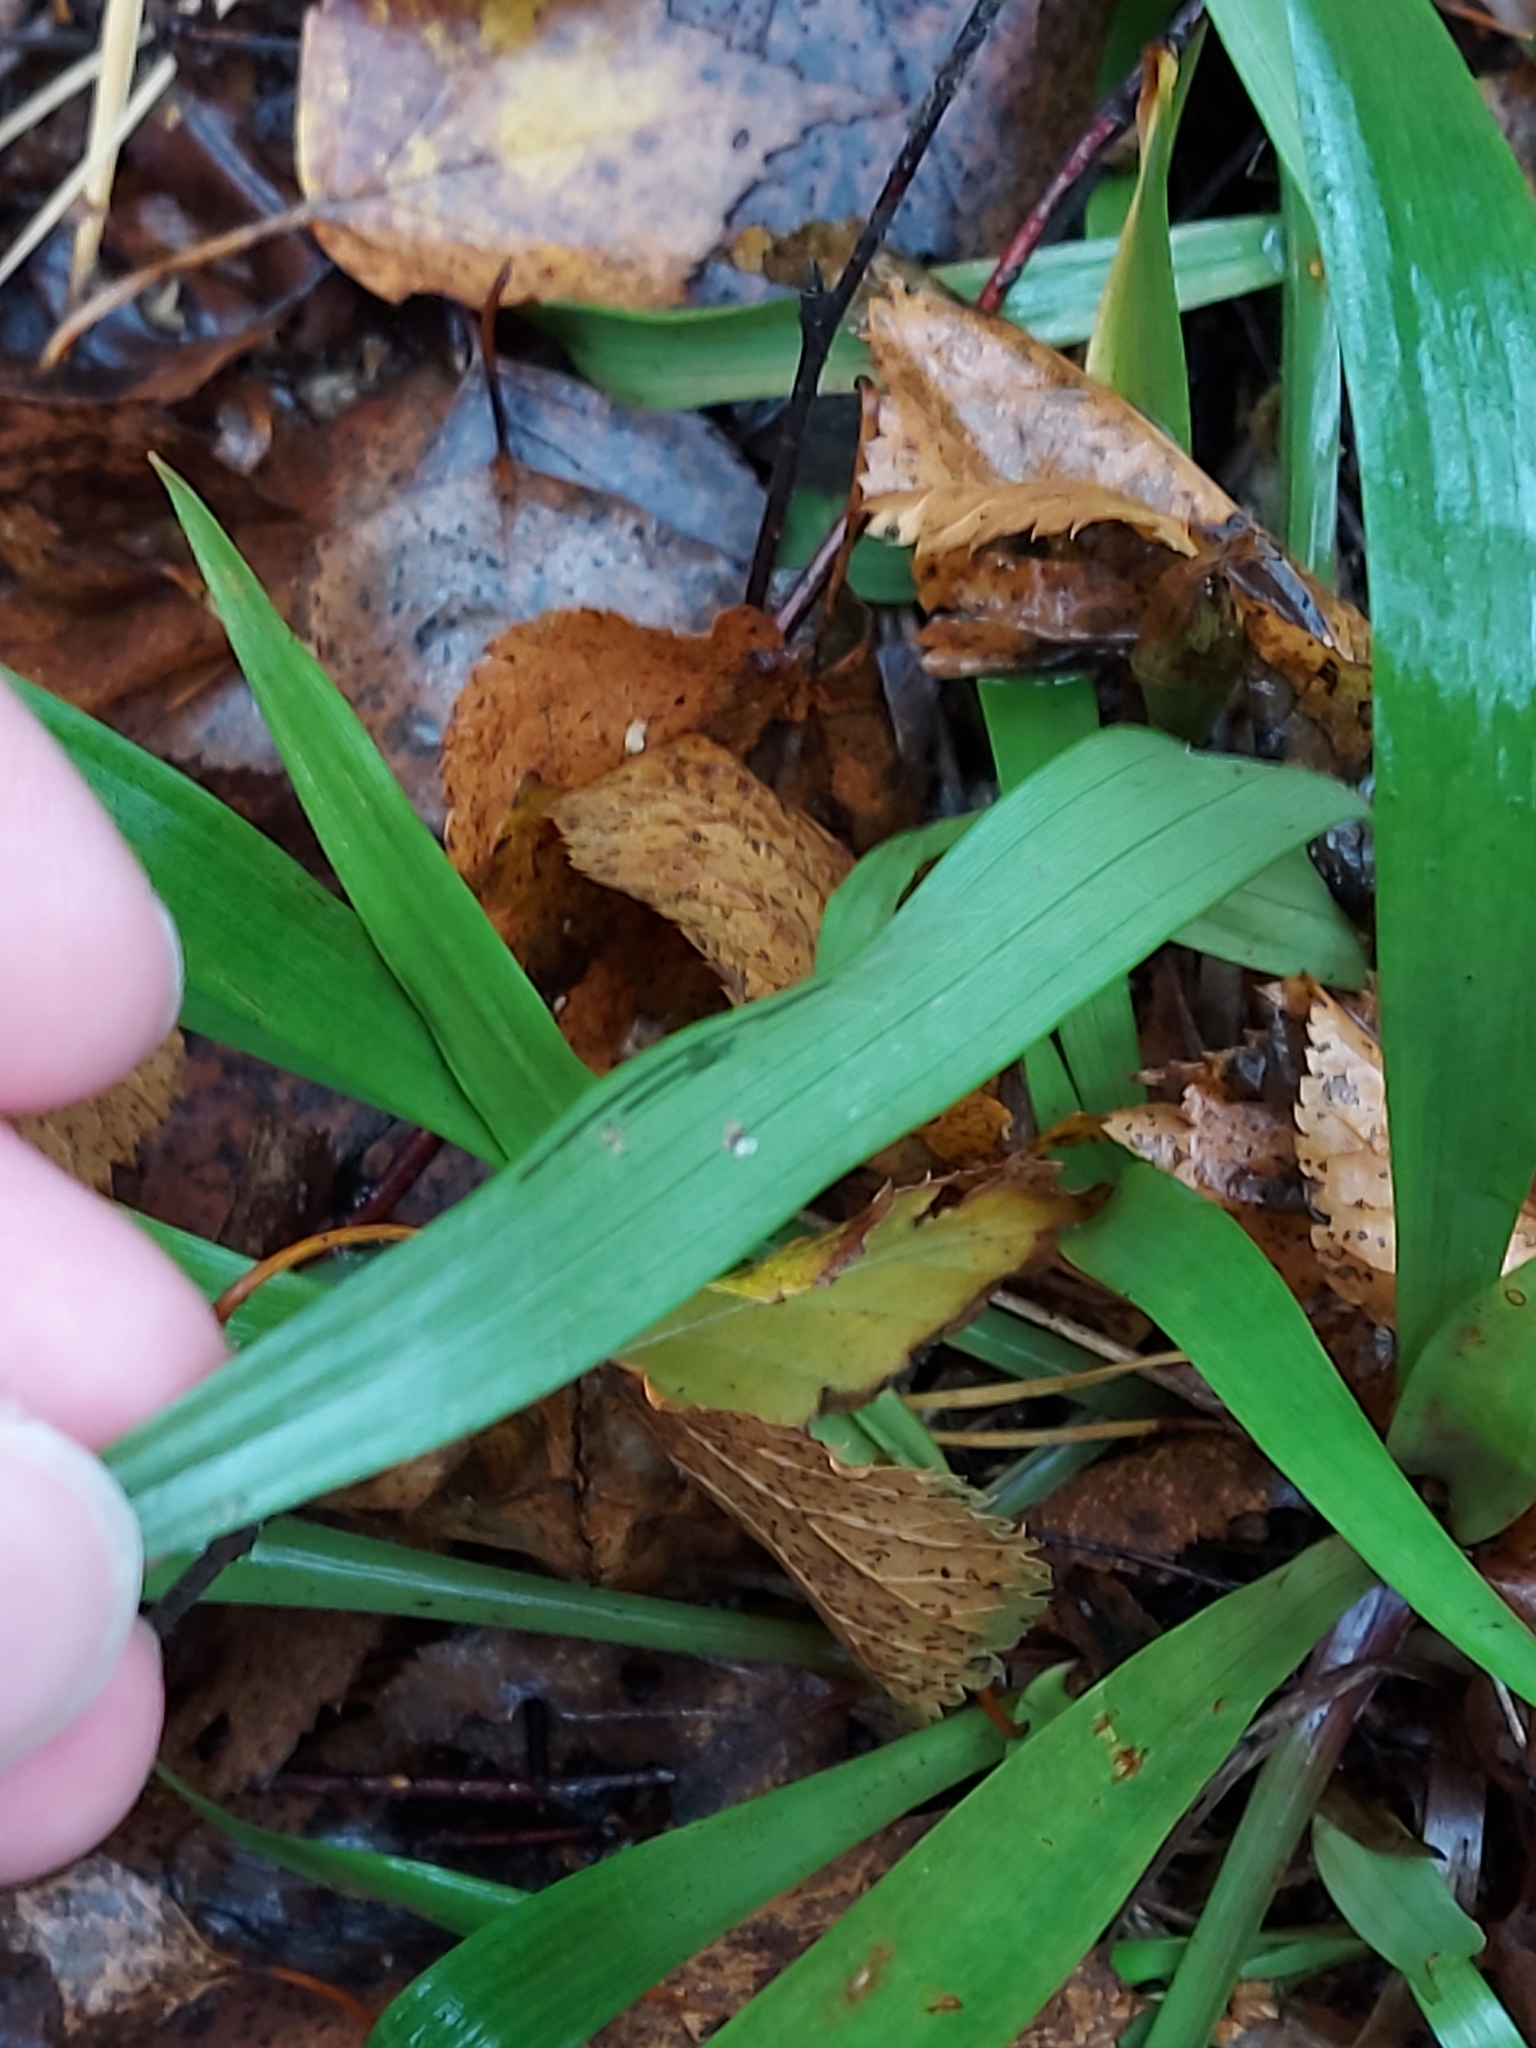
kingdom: Plantae
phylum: Tracheophyta
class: Liliopsida
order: Poales
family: Juncaceae
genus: Luzula
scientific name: Luzula pilosa
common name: Hairy wood-rush
